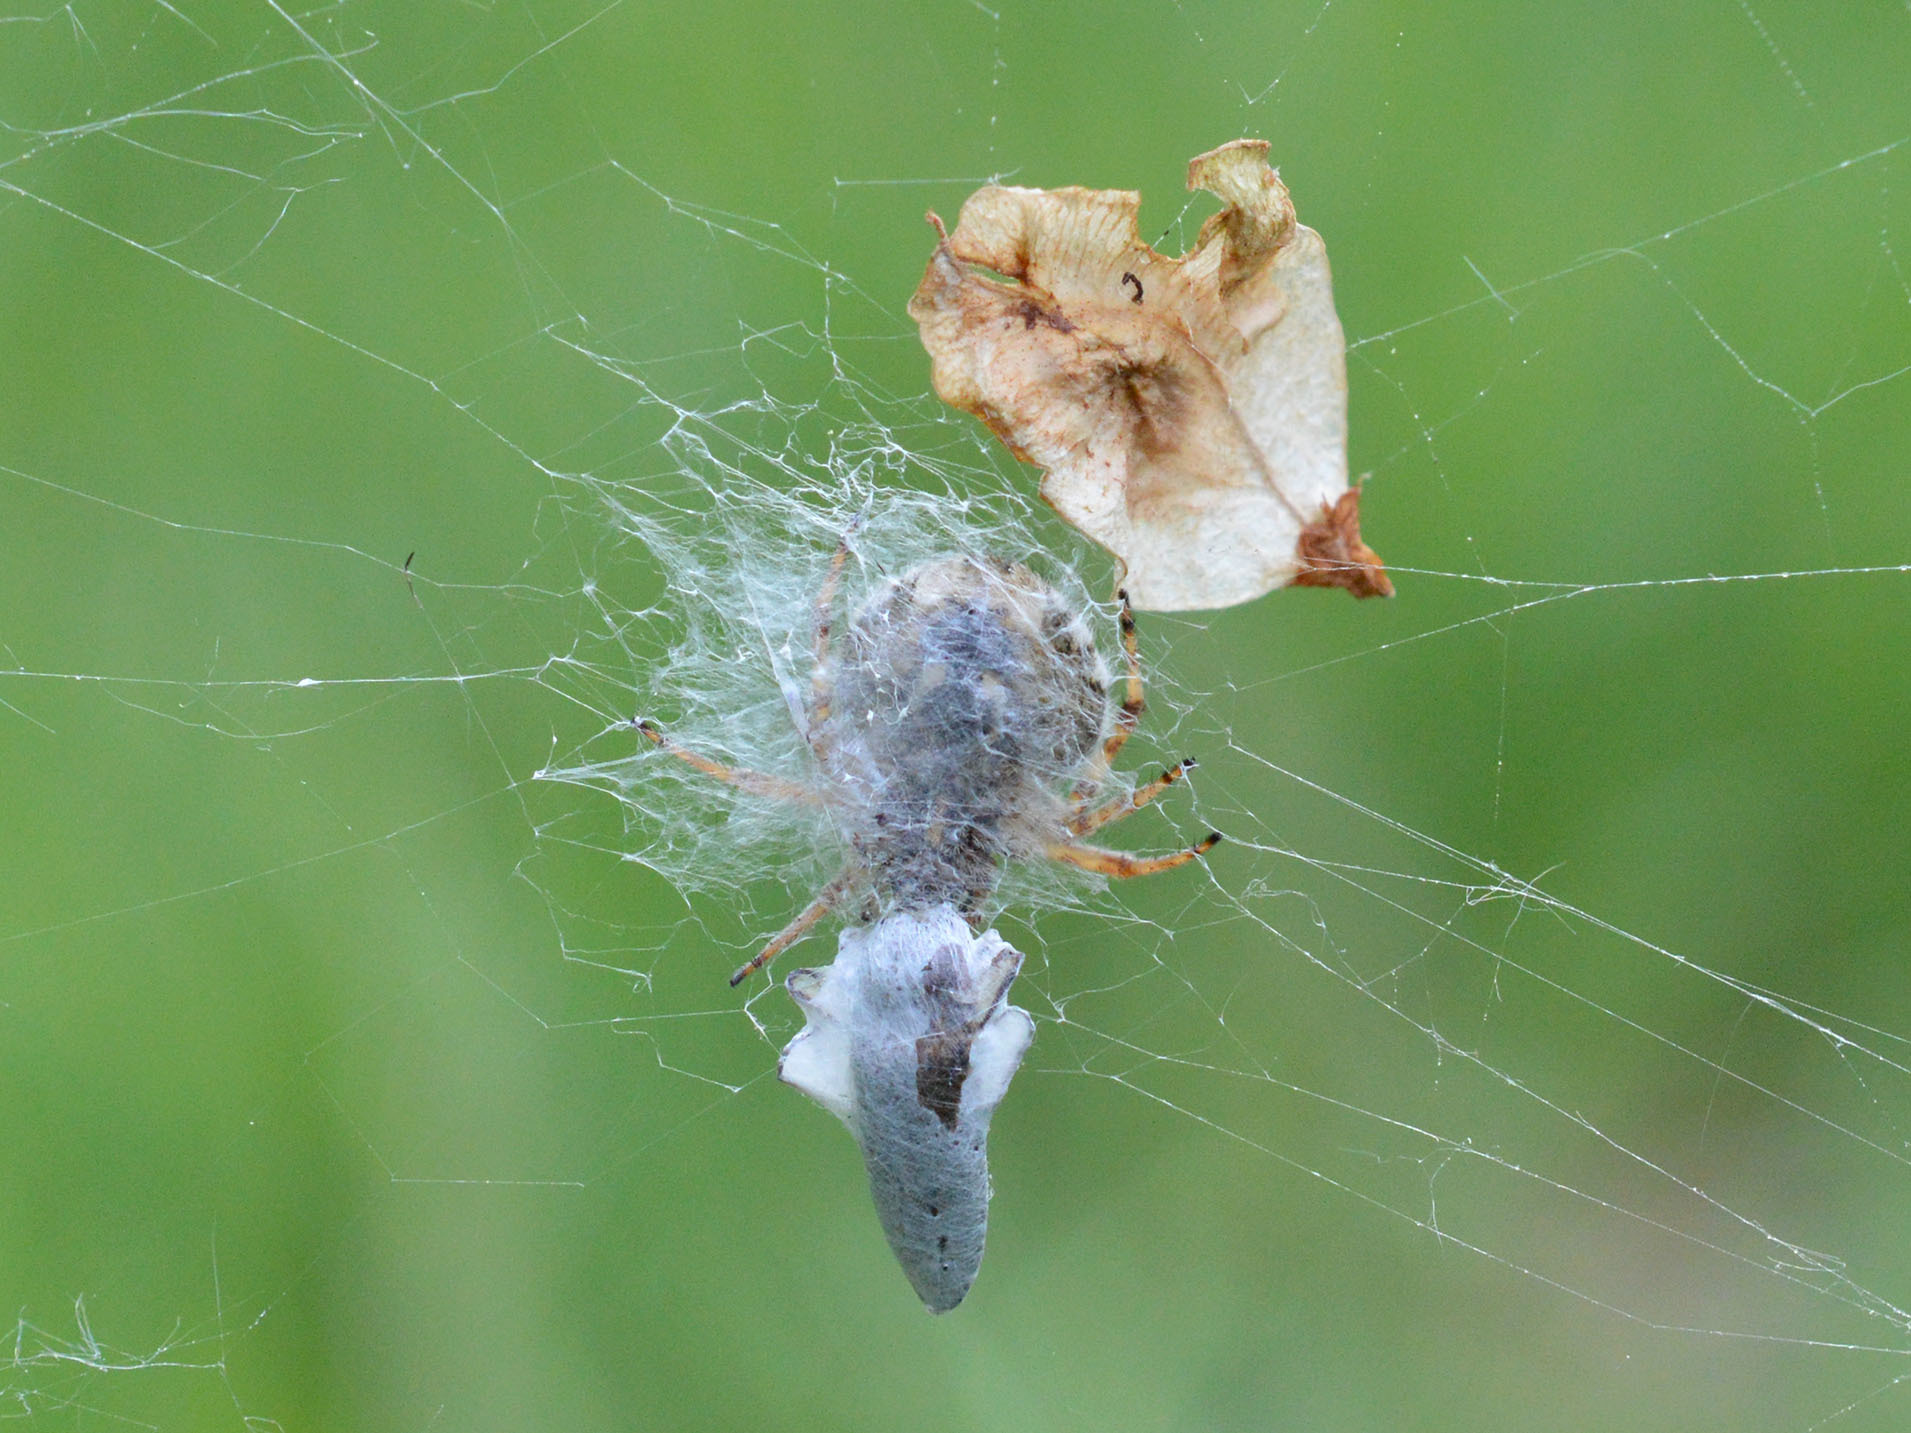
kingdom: Animalia
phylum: Arthropoda
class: Arachnida
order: Araneae
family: Araneidae
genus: Agalenatea
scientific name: Agalenatea redii
